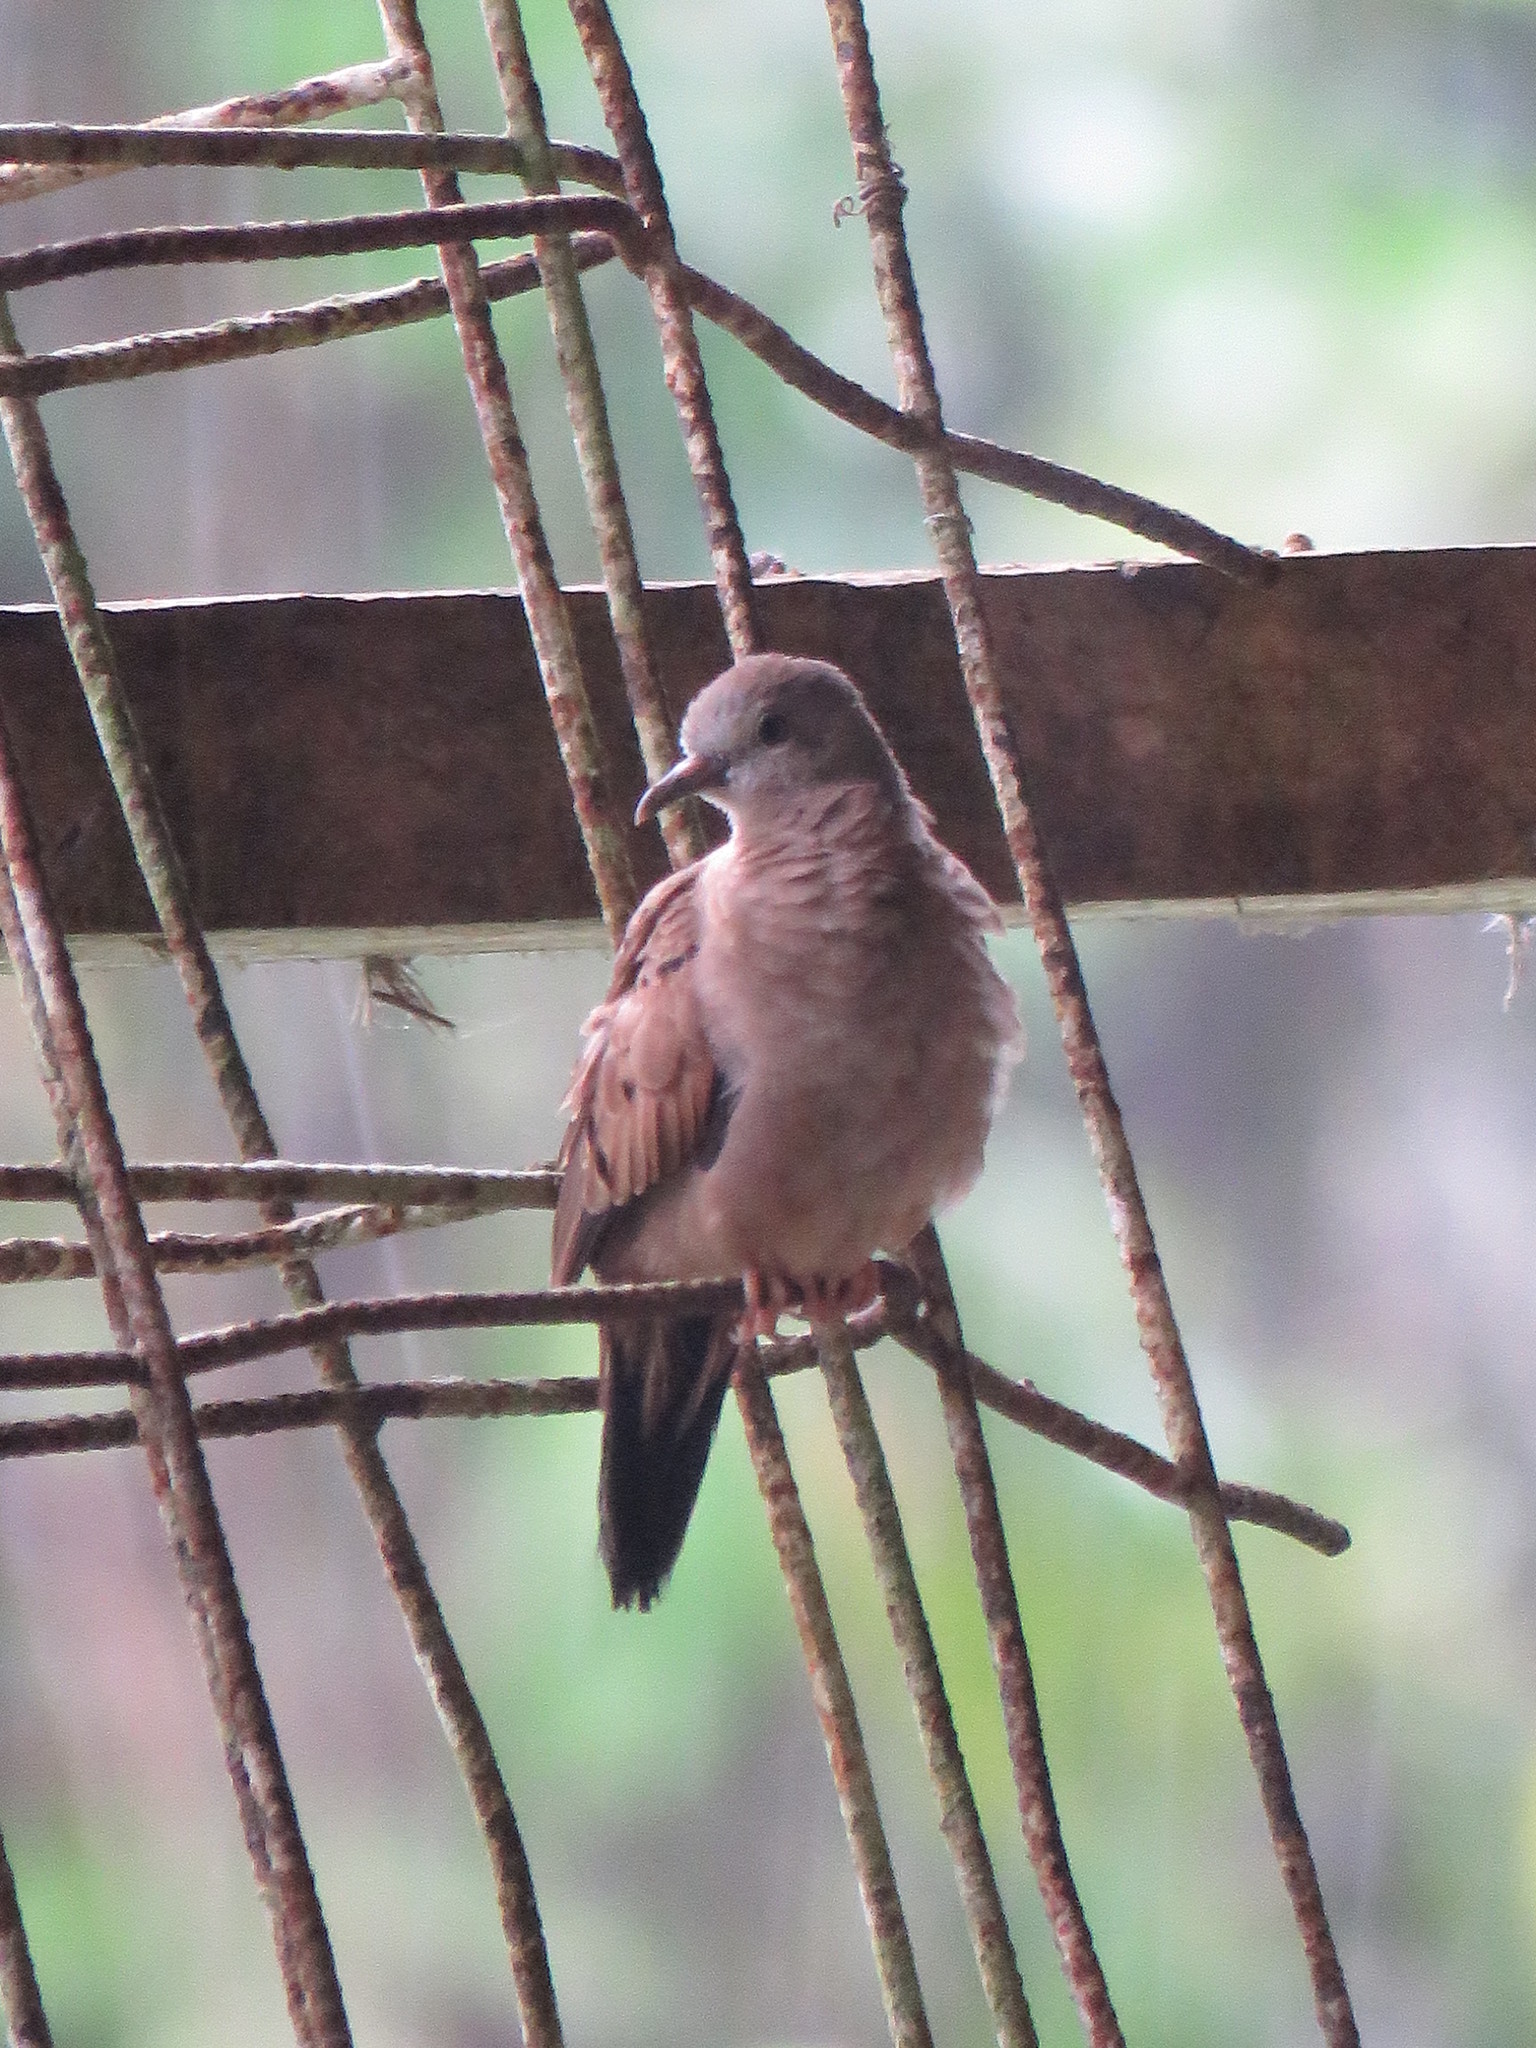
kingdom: Animalia
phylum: Chordata
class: Aves
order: Columbiformes
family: Columbidae
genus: Columbina
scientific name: Columbina talpacoti
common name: Ruddy ground dove
